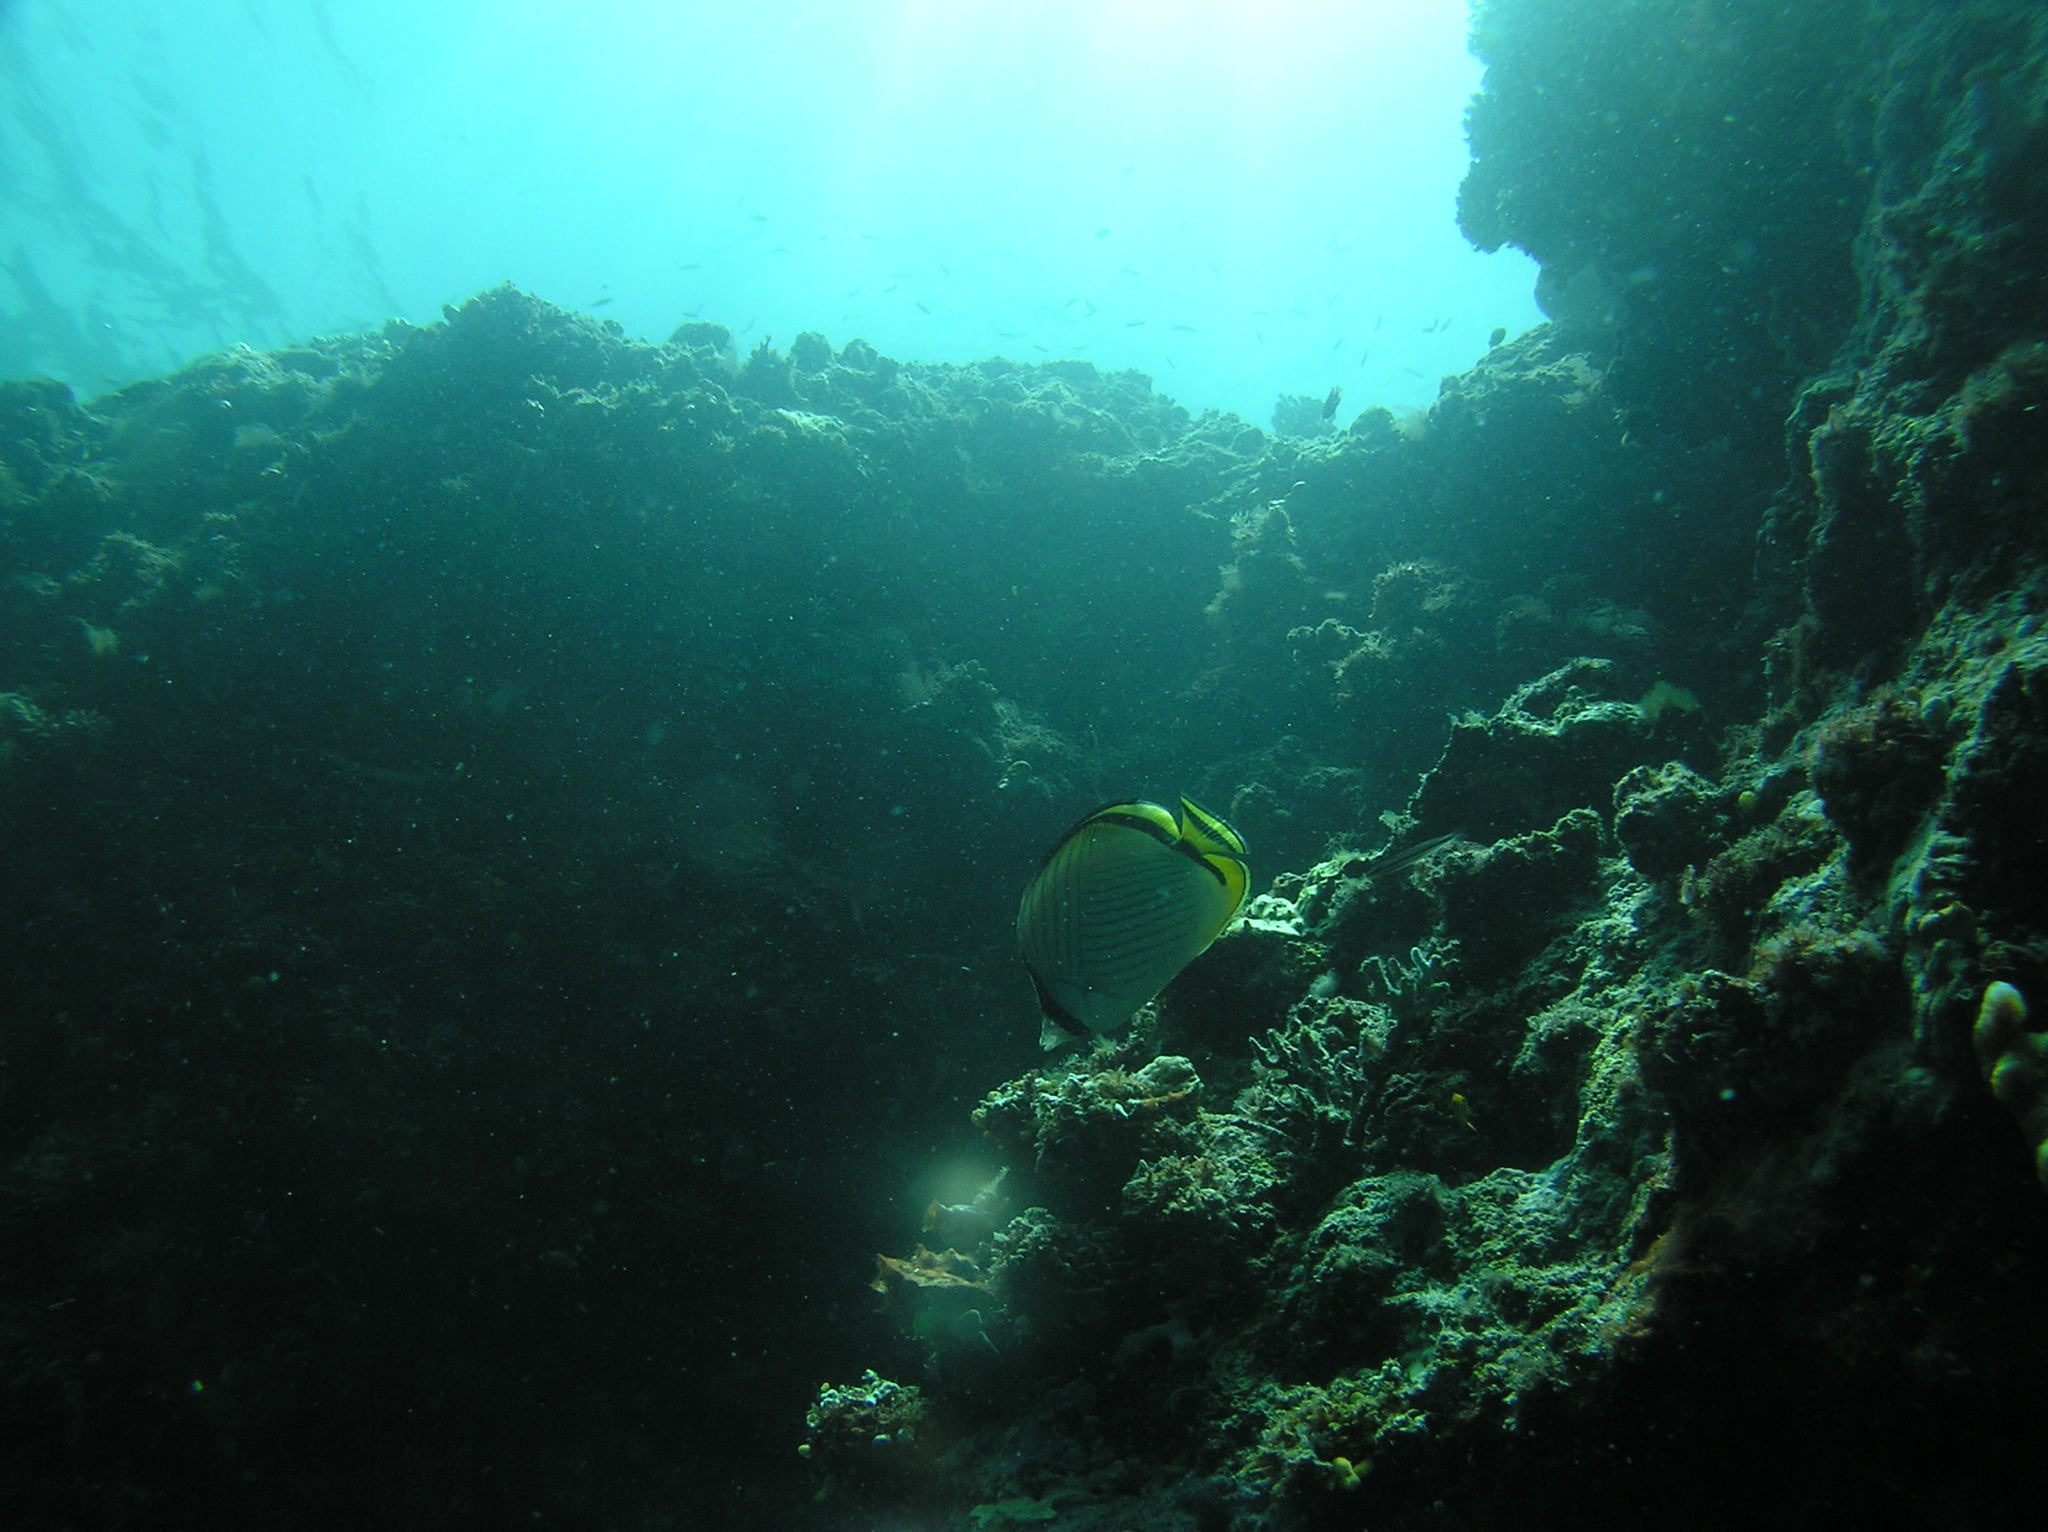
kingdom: Animalia
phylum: Chordata
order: Perciformes
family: Chaetodontidae
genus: Chaetodon
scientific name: Chaetodon vagabundus
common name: Vagabond butterflyfish
